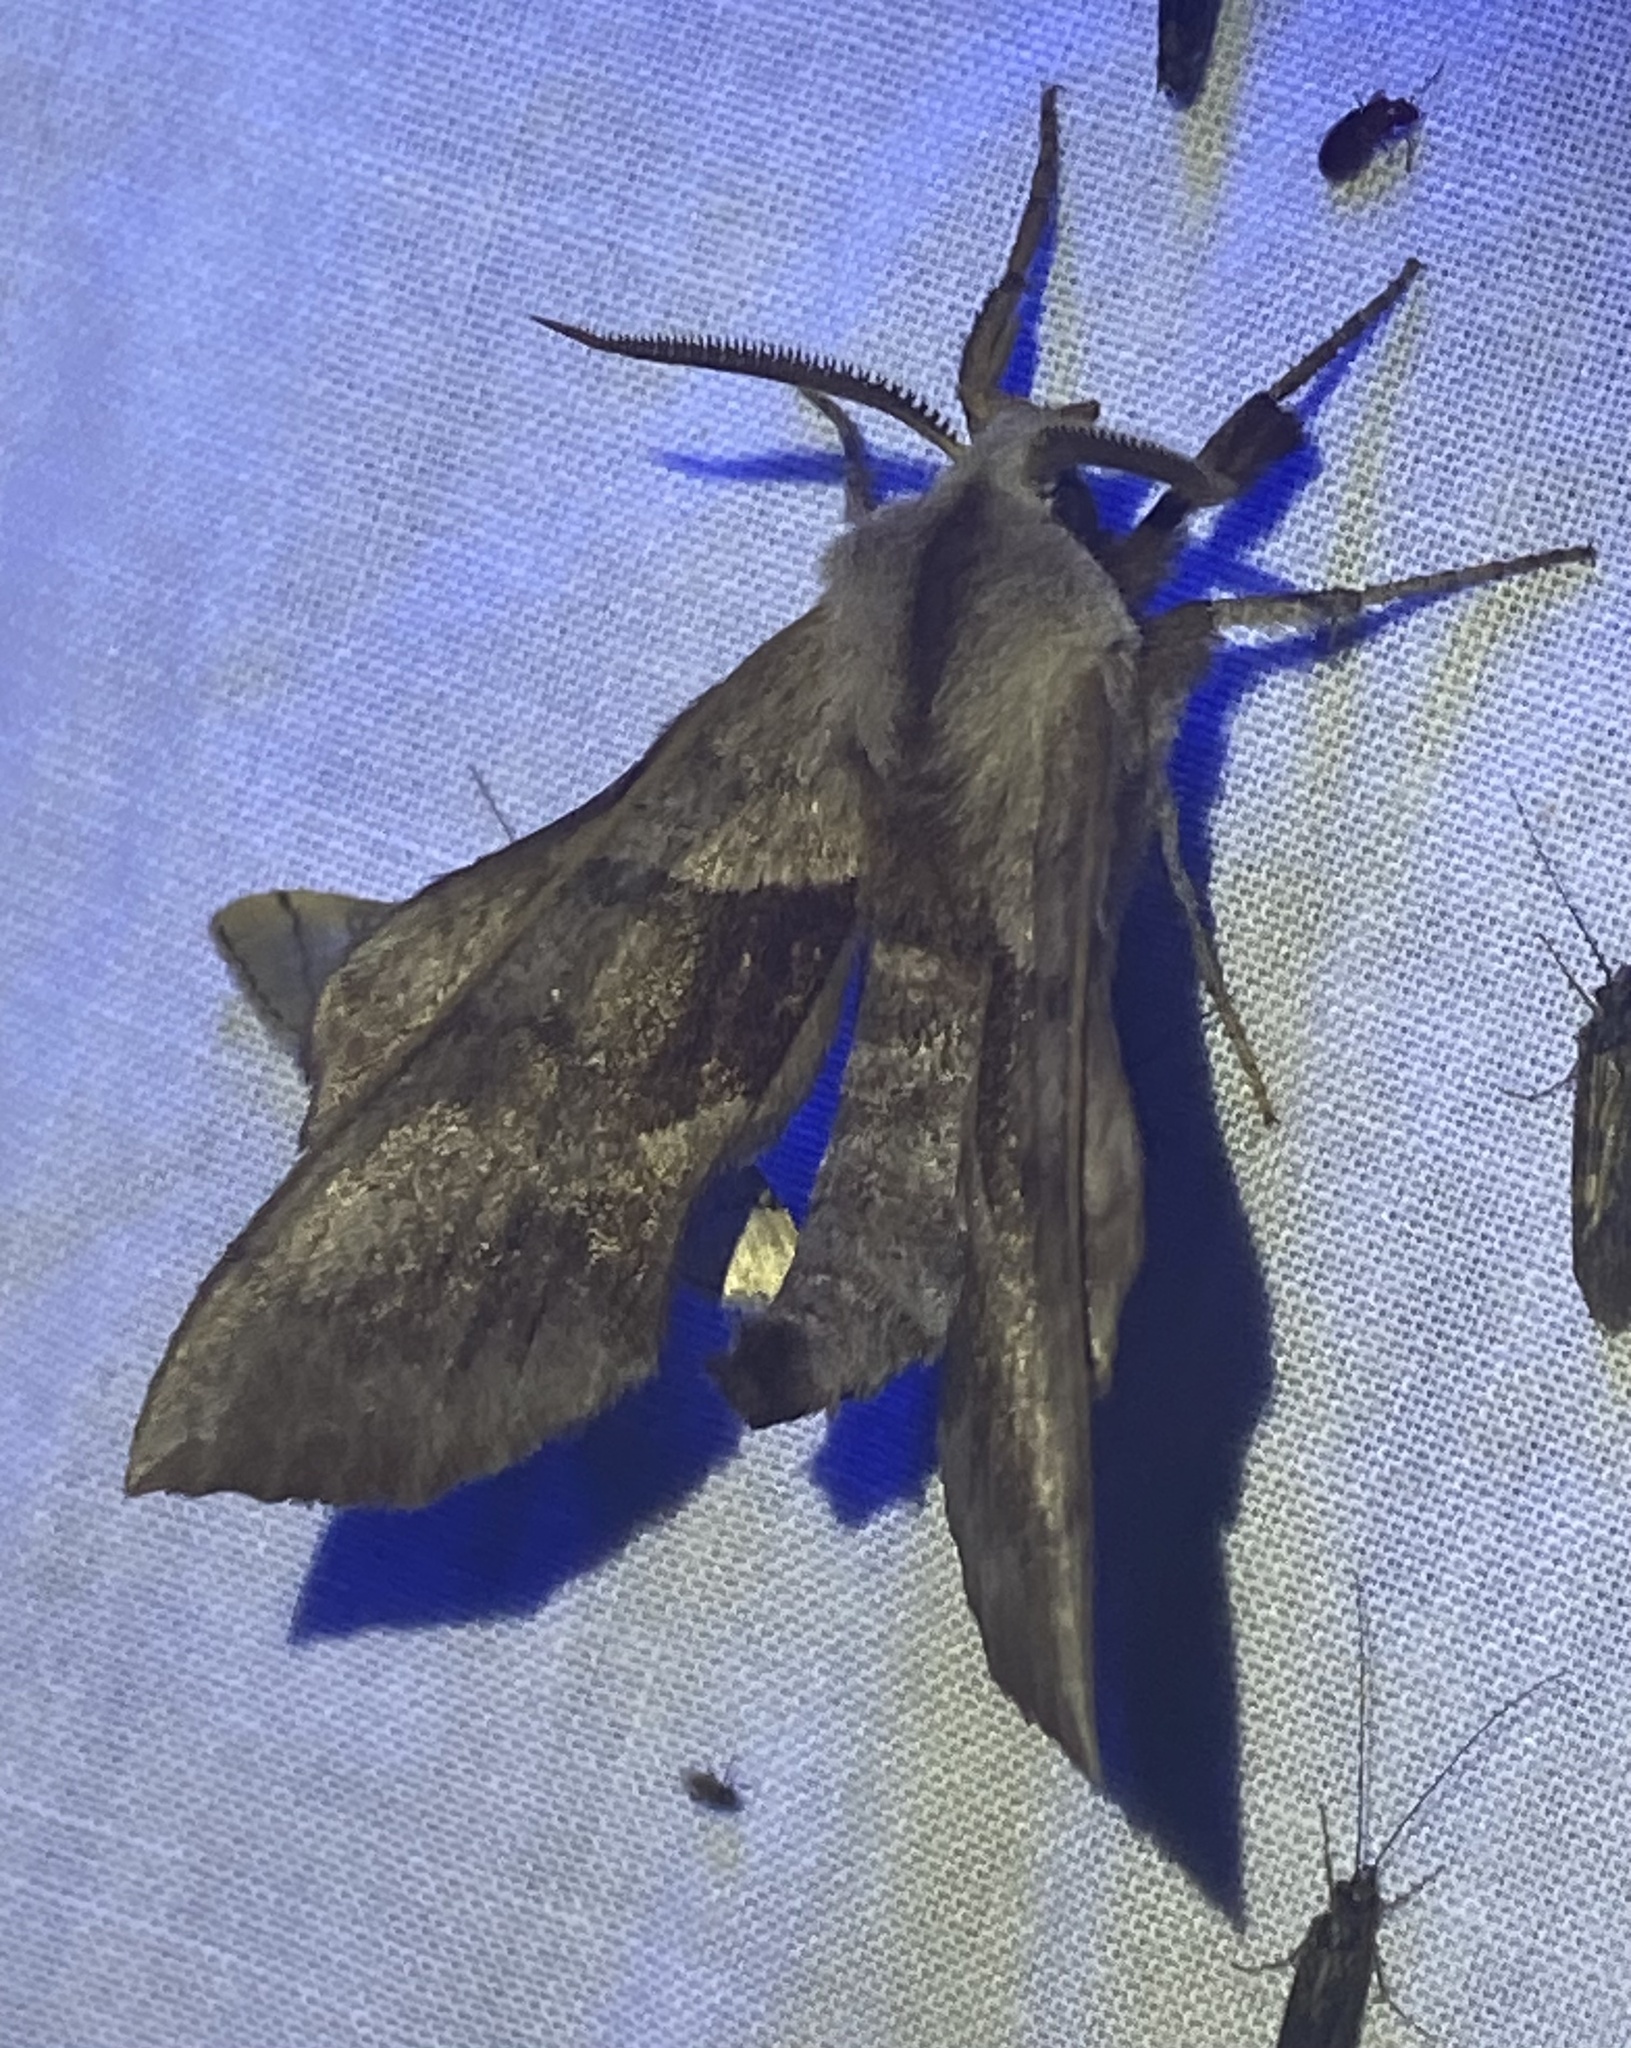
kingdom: Animalia
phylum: Arthropoda
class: Insecta
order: Lepidoptera
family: Sphingidae
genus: Amorpha
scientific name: Amorpha juglandis
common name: Walnut sphinx
